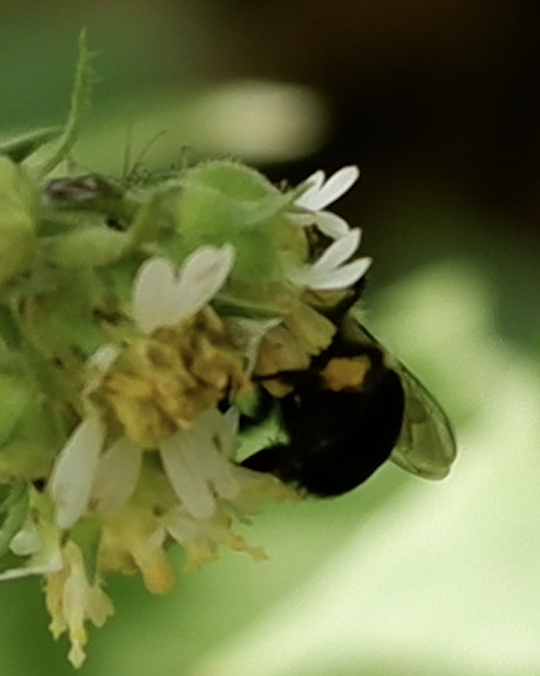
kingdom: Animalia
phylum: Arthropoda
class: Insecta
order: Hymenoptera
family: Apidae
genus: Bombus
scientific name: Bombus impatiens
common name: Common eastern bumble bee
